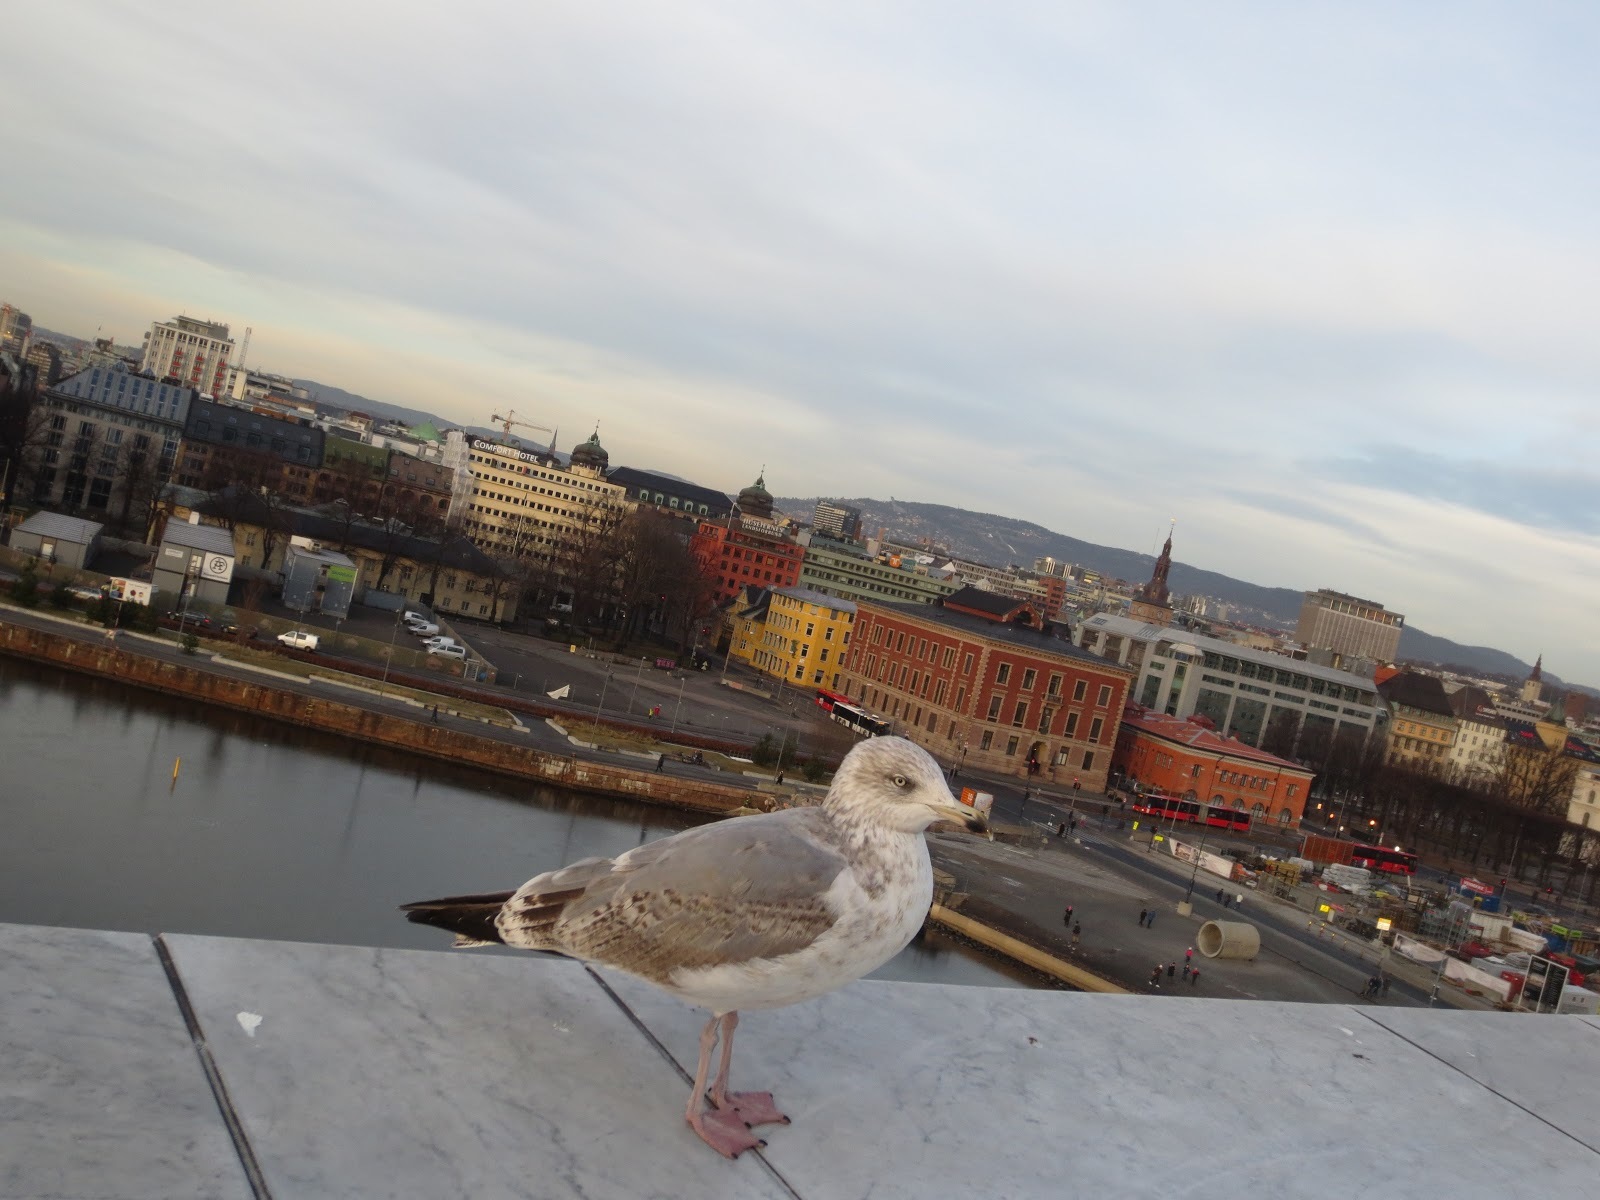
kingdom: Animalia
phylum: Chordata
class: Aves
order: Charadriiformes
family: Laridae
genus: Larus
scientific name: Larus argentatus
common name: Herring gull
